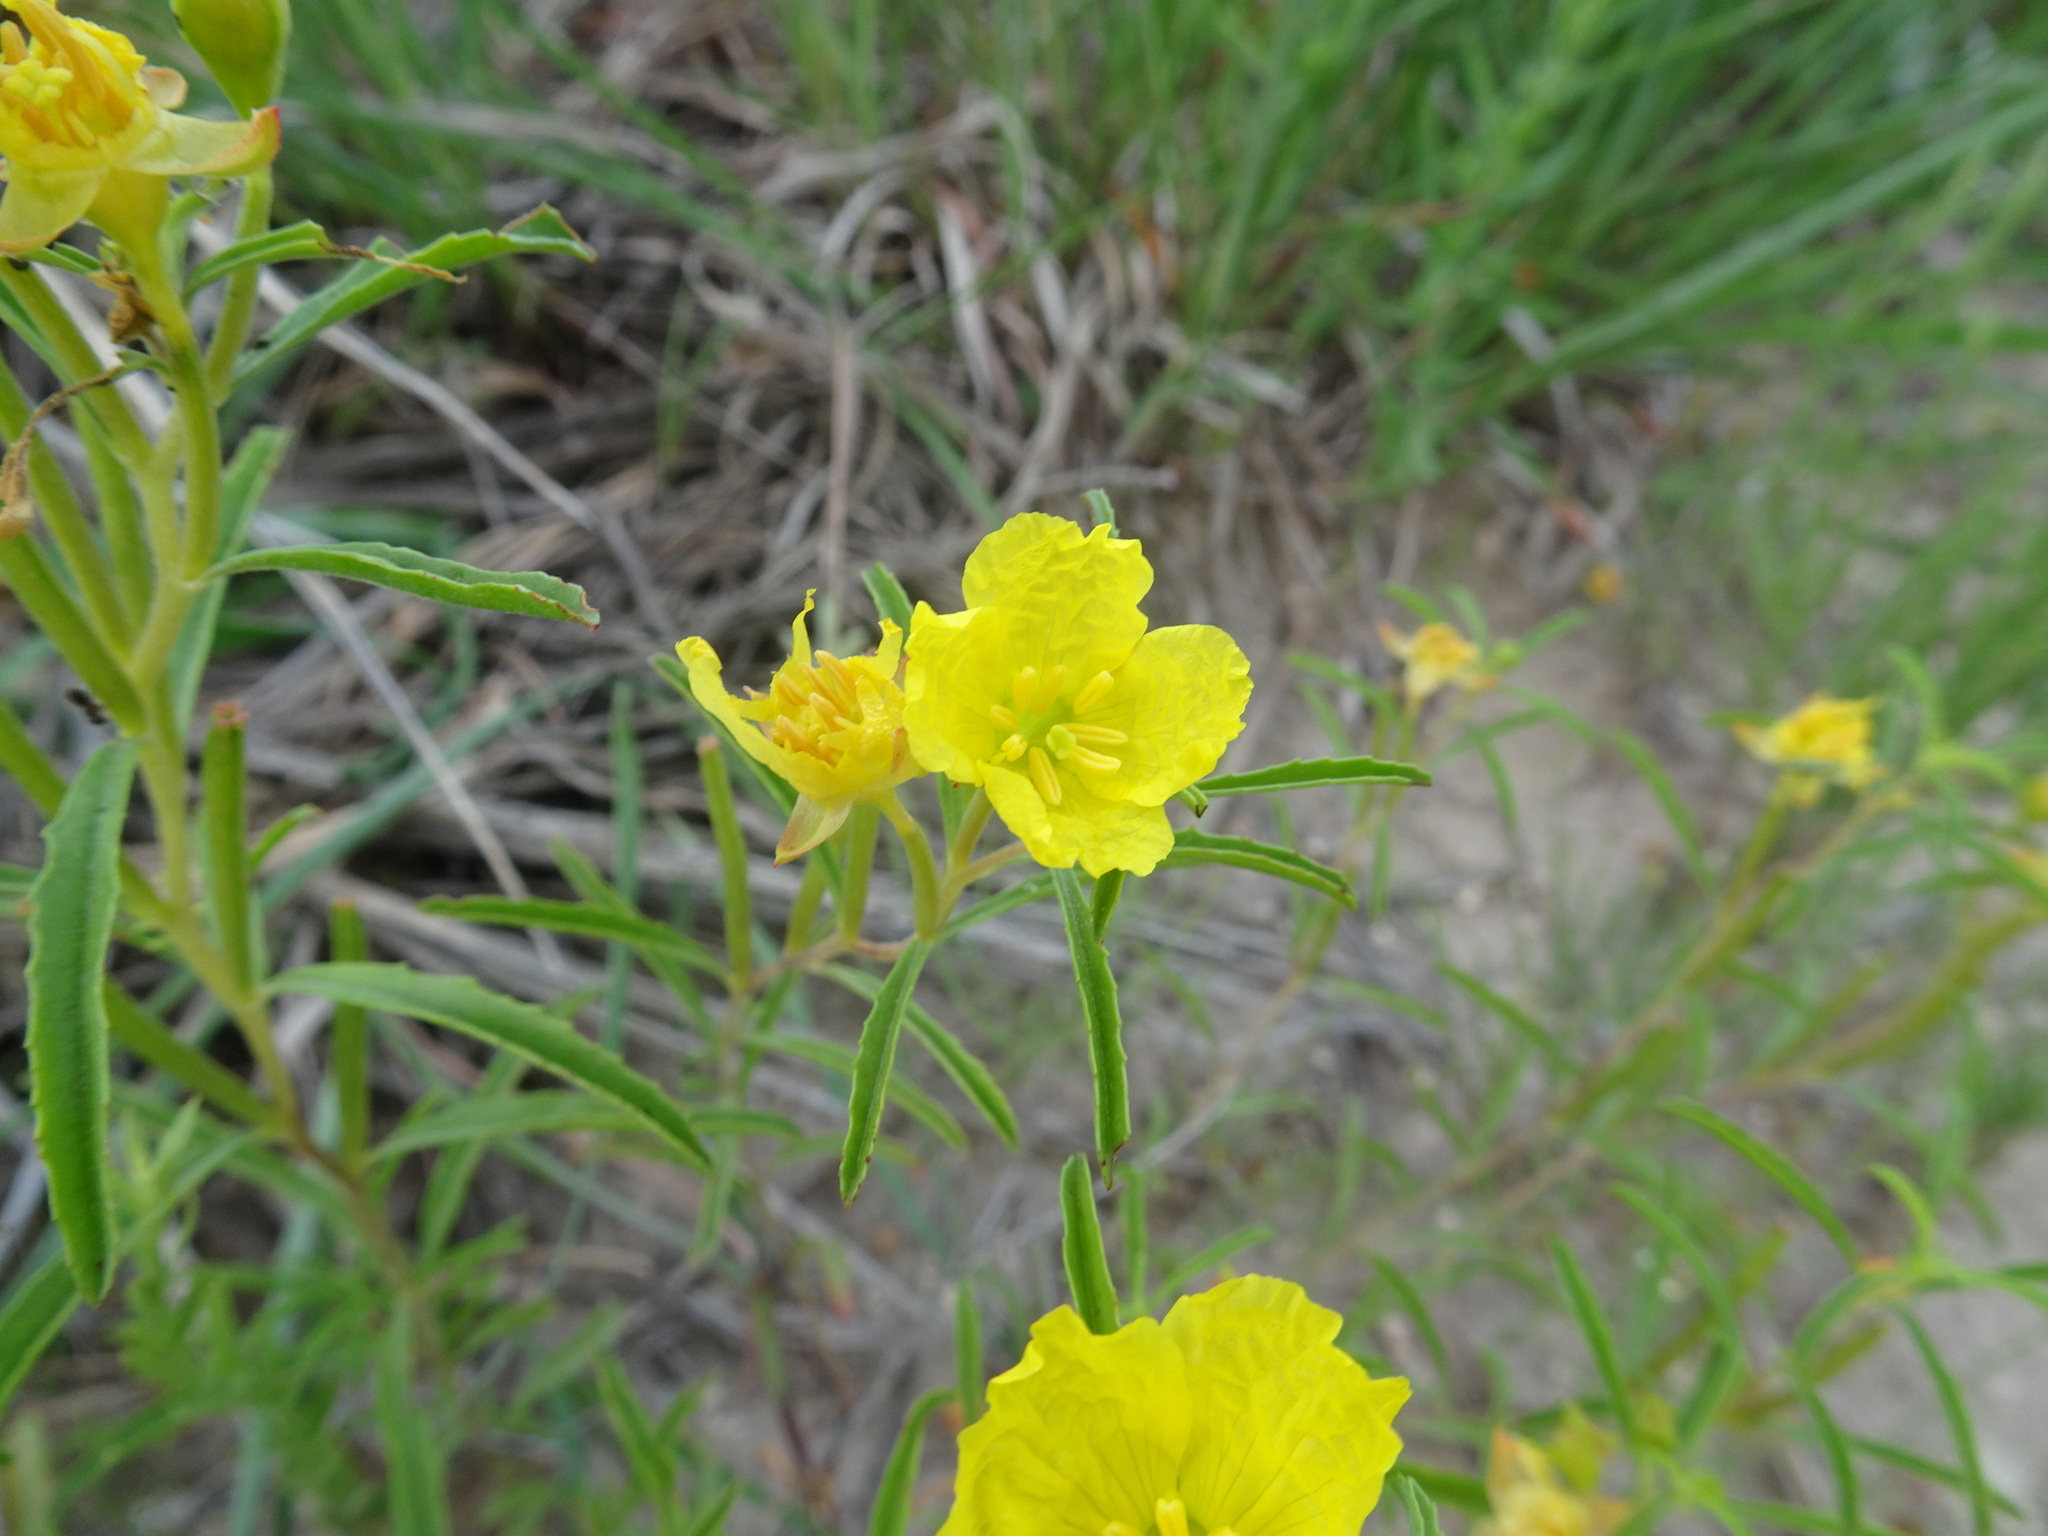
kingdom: Plantae
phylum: Tracheophyta
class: Magnoliopsida
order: Myrtales
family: Onagraceae
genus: Oenothera
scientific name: Oenothera serrulata
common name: Half-shrub calylophus
